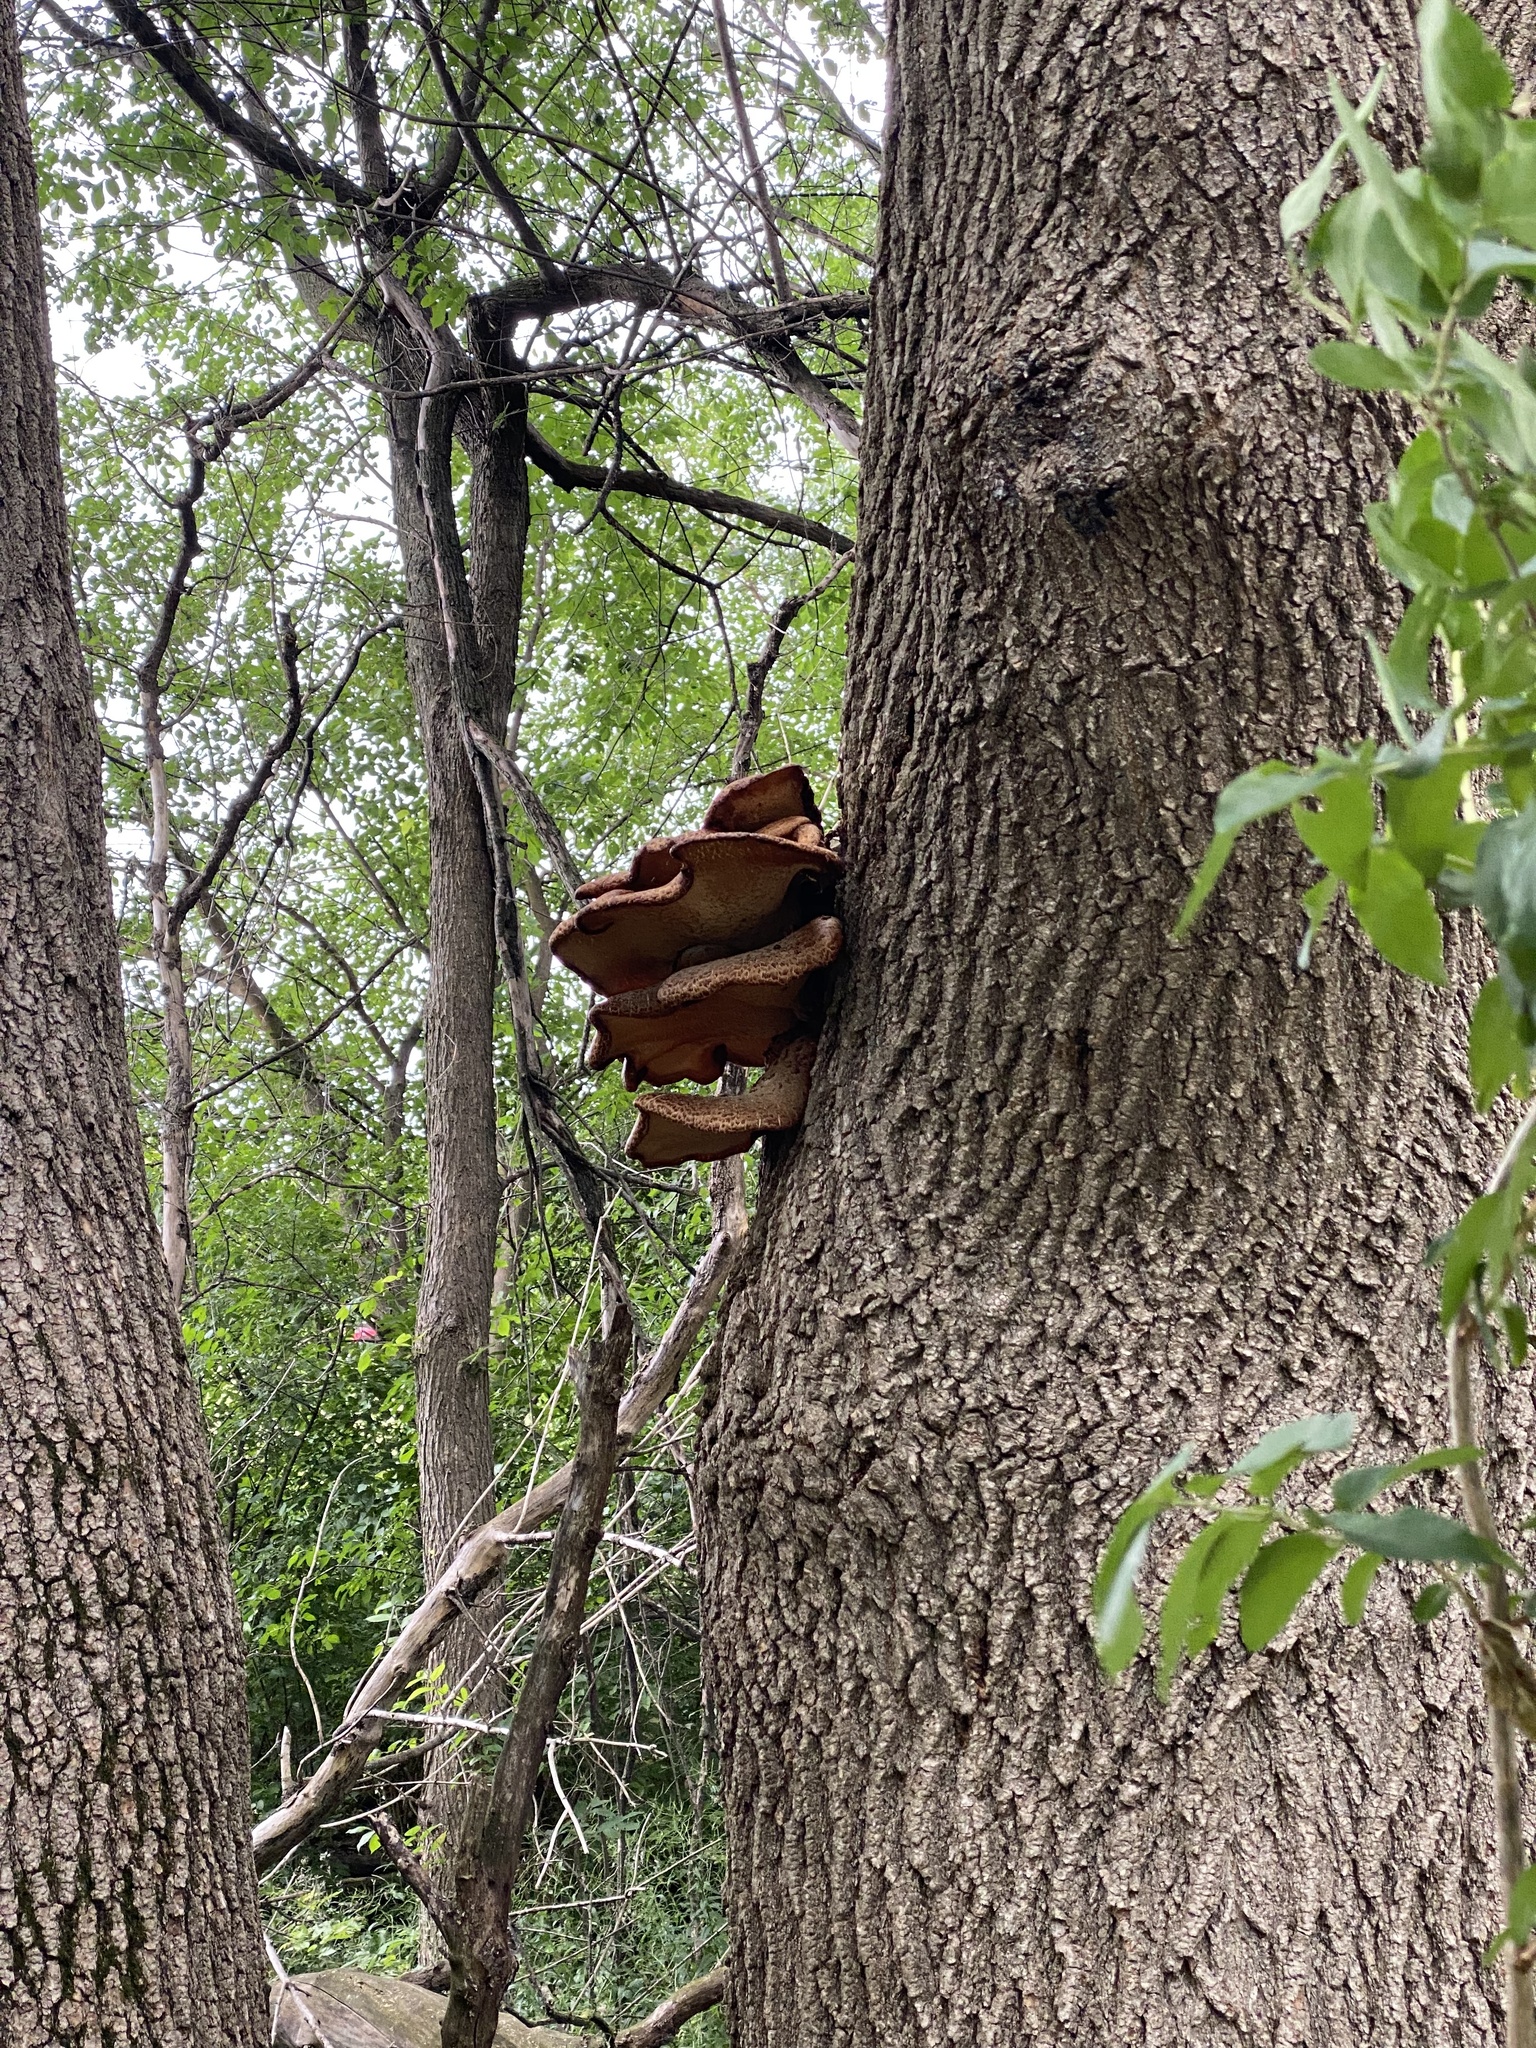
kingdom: Fungi
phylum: Basidiomycota
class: Agaricomycetes
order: Polyporales
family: Polyporaceae
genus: Cerioporus
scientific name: Cerioporus squamosus
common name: Dryad's saddle
